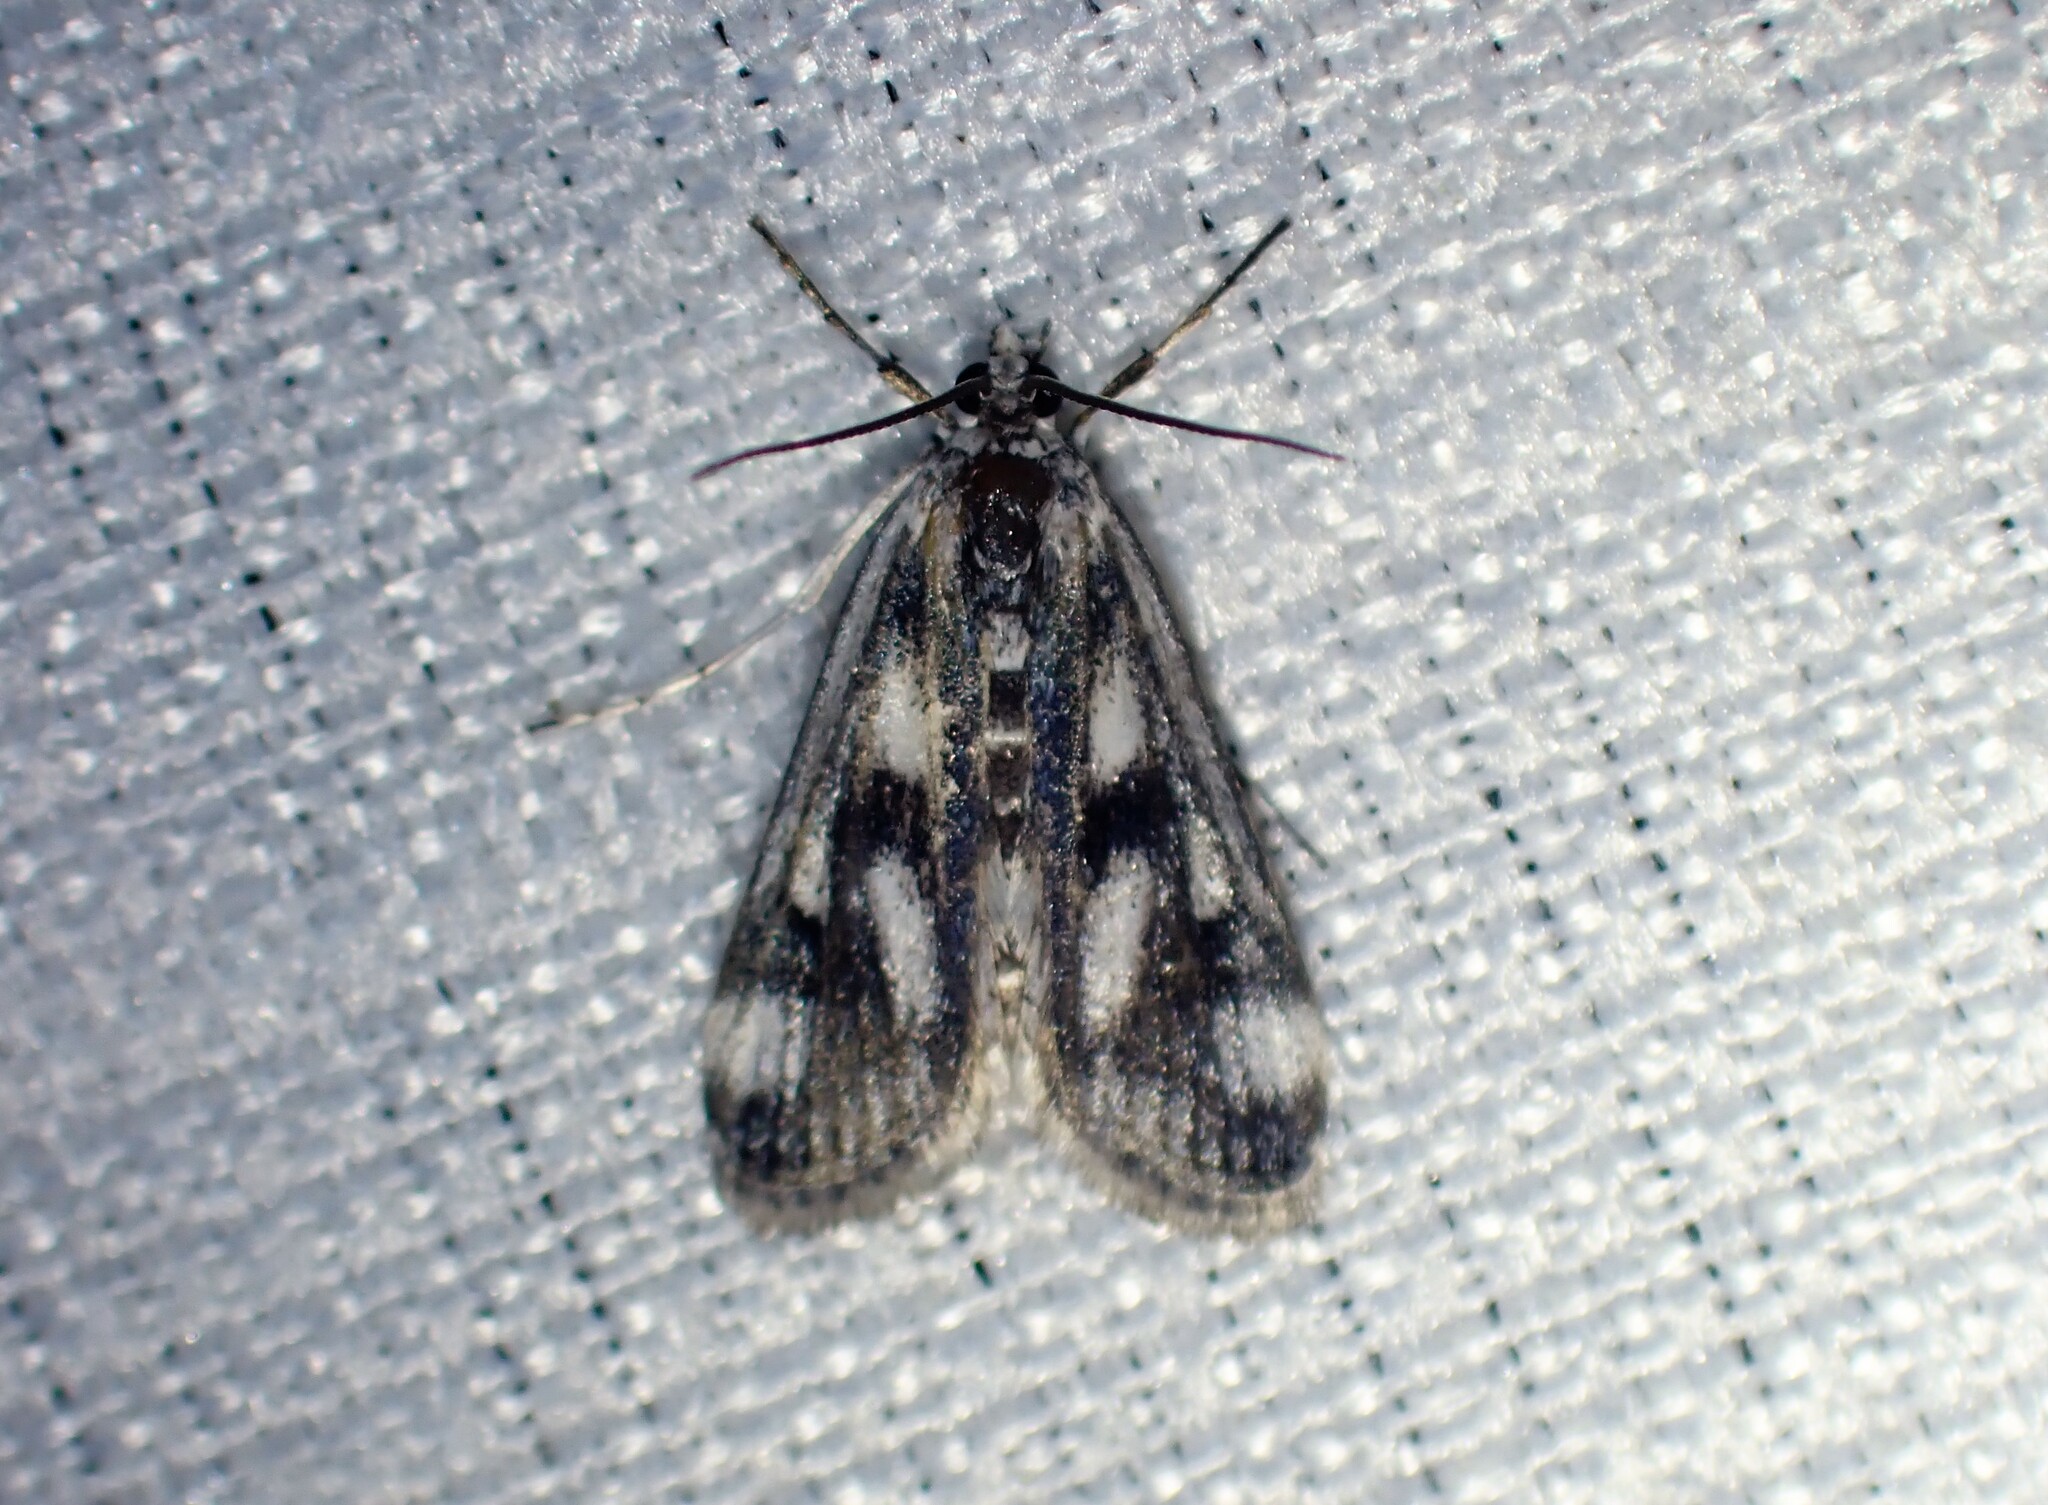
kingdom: Animalia
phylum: Arthropoda
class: Insecta
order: Lepidoptera
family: Crambidae
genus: Parapoynx
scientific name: Parapoynx maculalis
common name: Polymorphic pondweed moth
